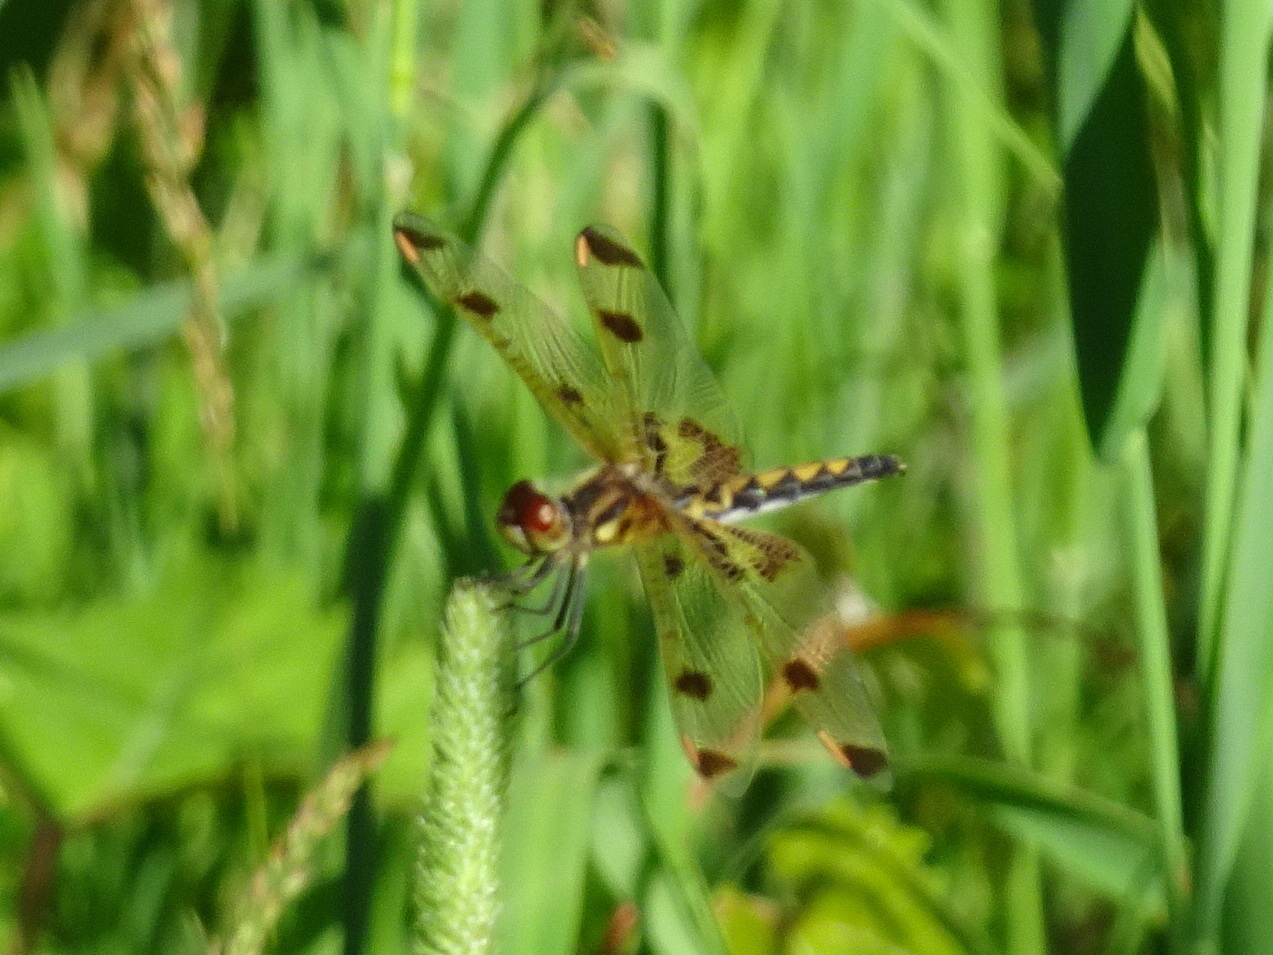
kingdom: Animalia
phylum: Arthropoda
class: Insecta
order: Odonata
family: Libellulidae
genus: Celithemis
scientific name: Celithemis elisa
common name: Calico pennant
